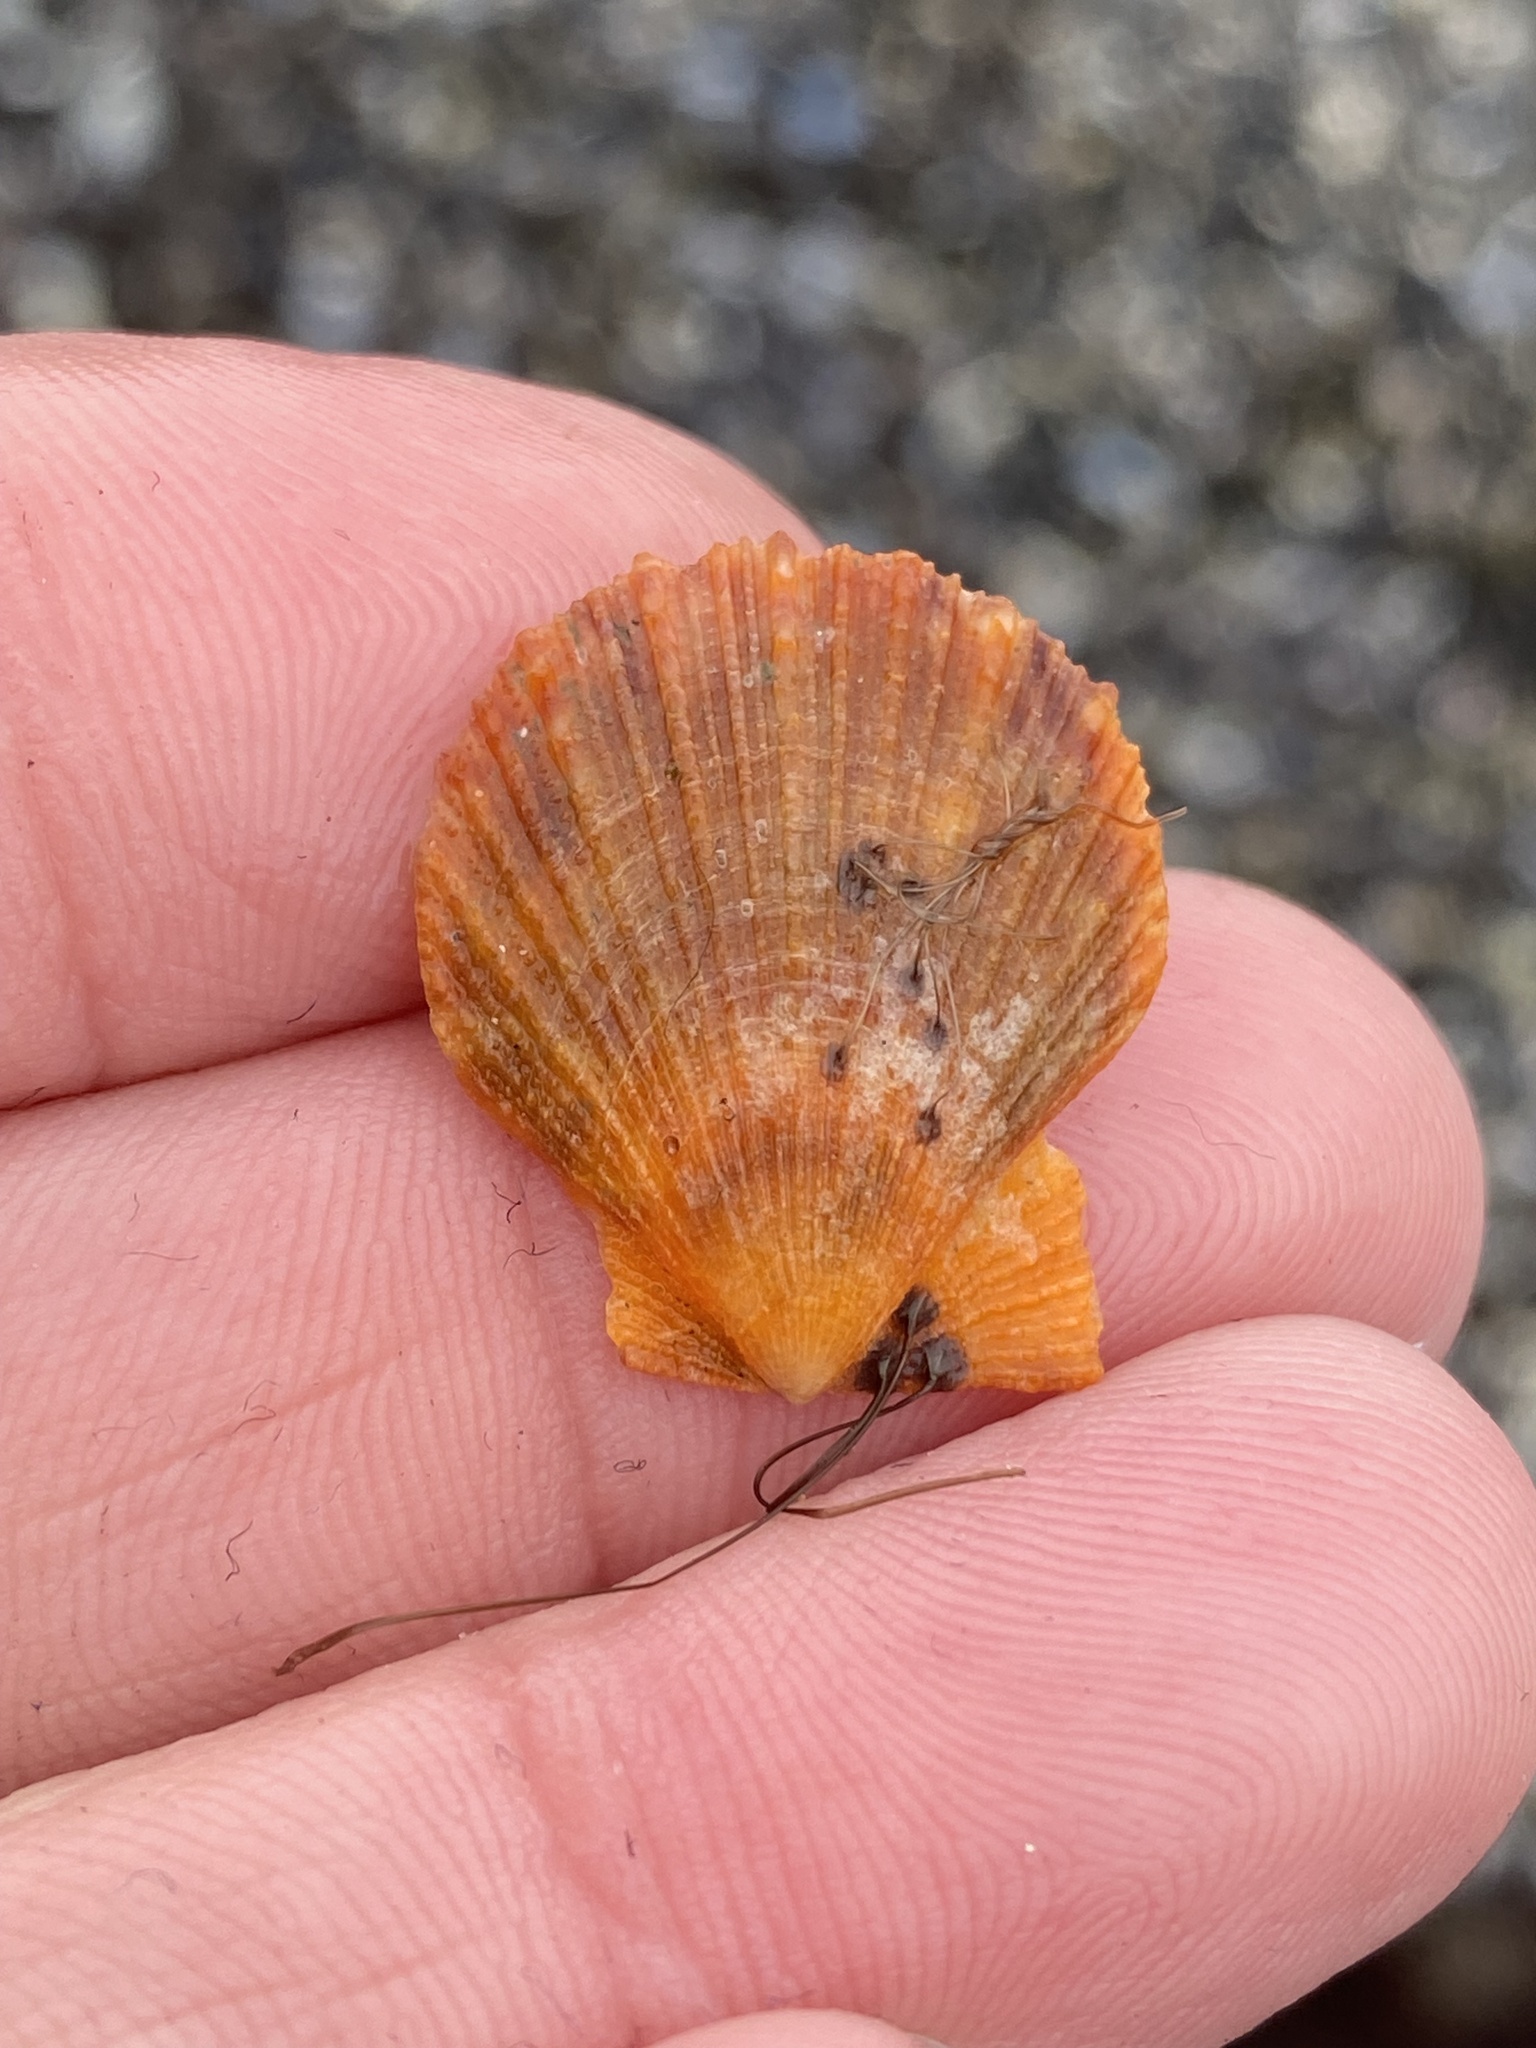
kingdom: Animalia
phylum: Mollusca
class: Bivalvia
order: Pectinida
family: Pectinidae
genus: Crassadoma
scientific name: Crassadoma gigantea
